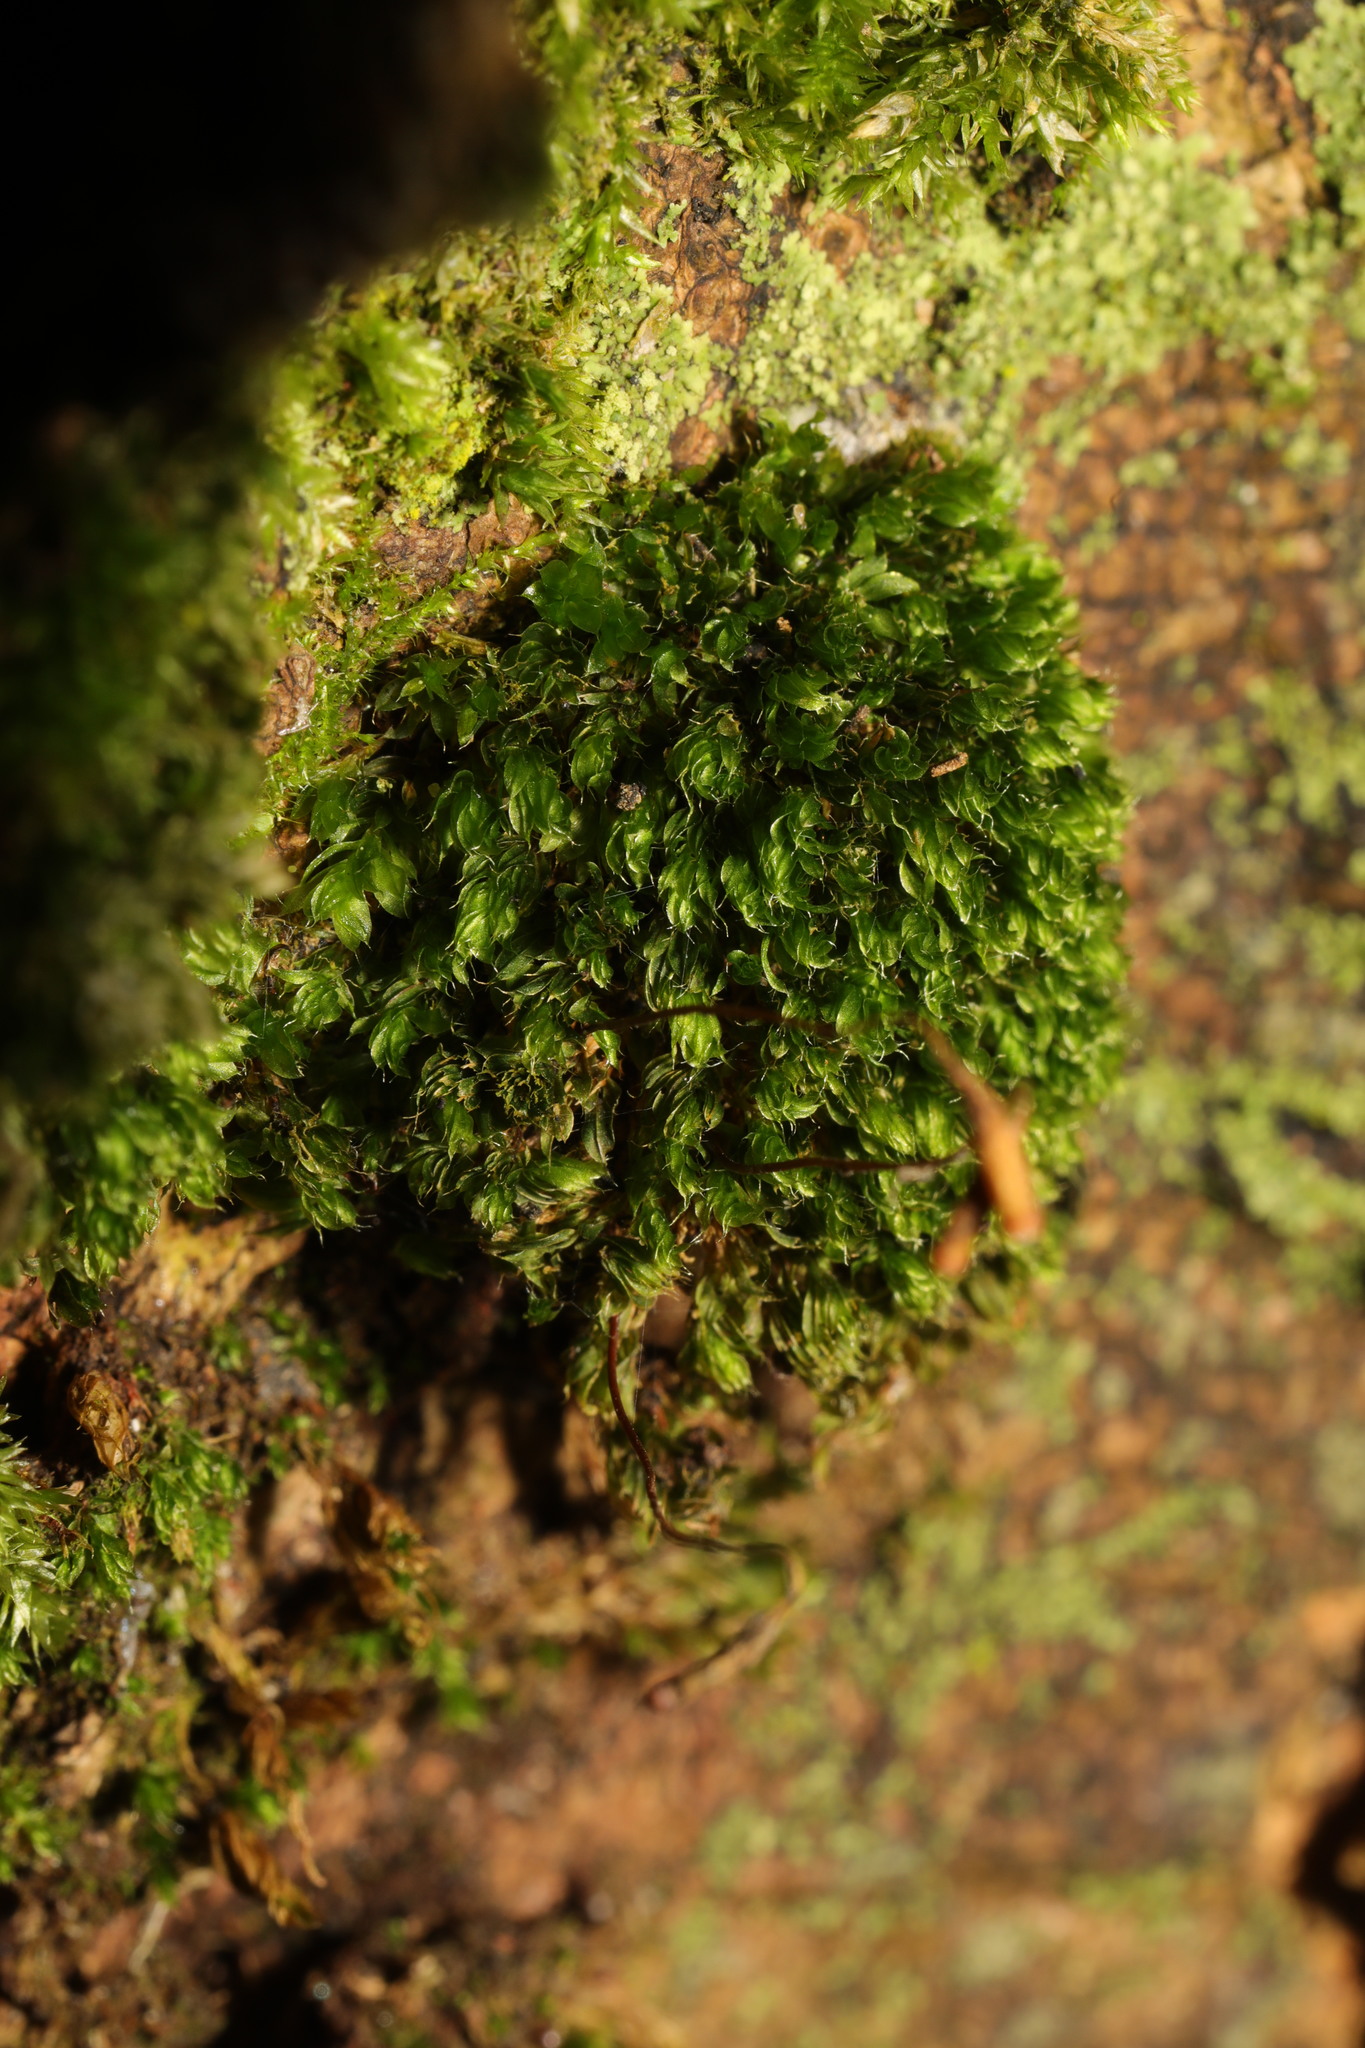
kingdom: Plantae
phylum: Bryophyta
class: Bryopsida
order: Bryales
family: Bryaceae
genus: Rosulabryum
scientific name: Rosulabryum capillare
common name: Capillary thread-moss
